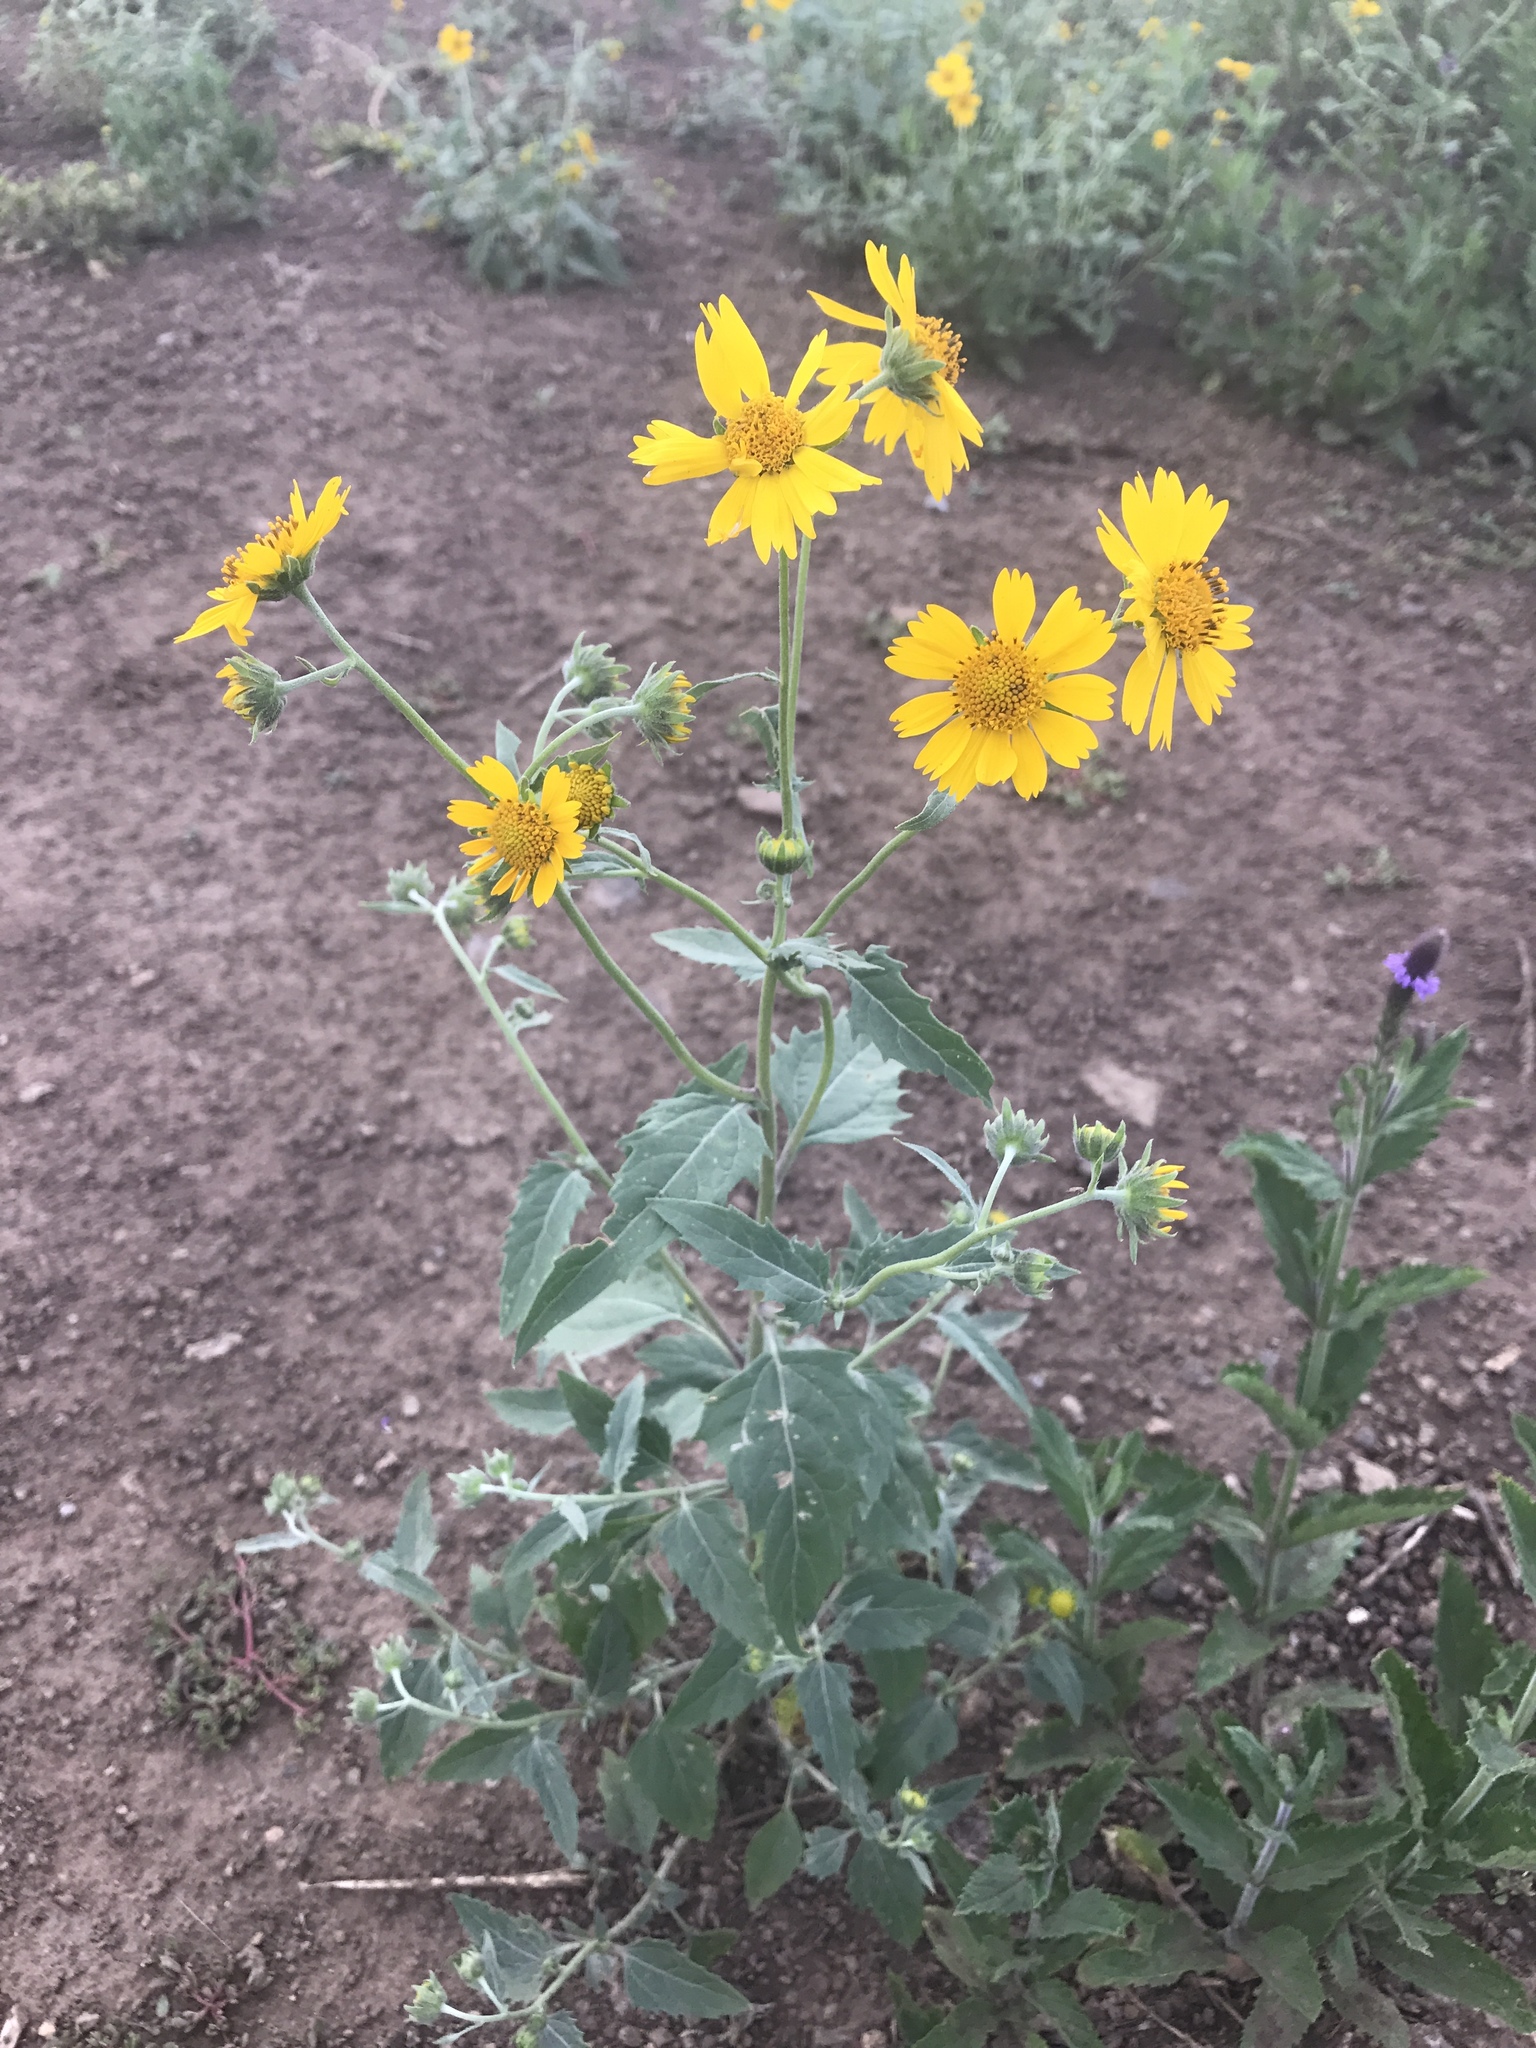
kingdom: Plantae
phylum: Tracheophyta
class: Magnoliopsida
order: Asterales
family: Asteraceae
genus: Verbesina
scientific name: Verbesina encelioides
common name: Golden crownbeard
